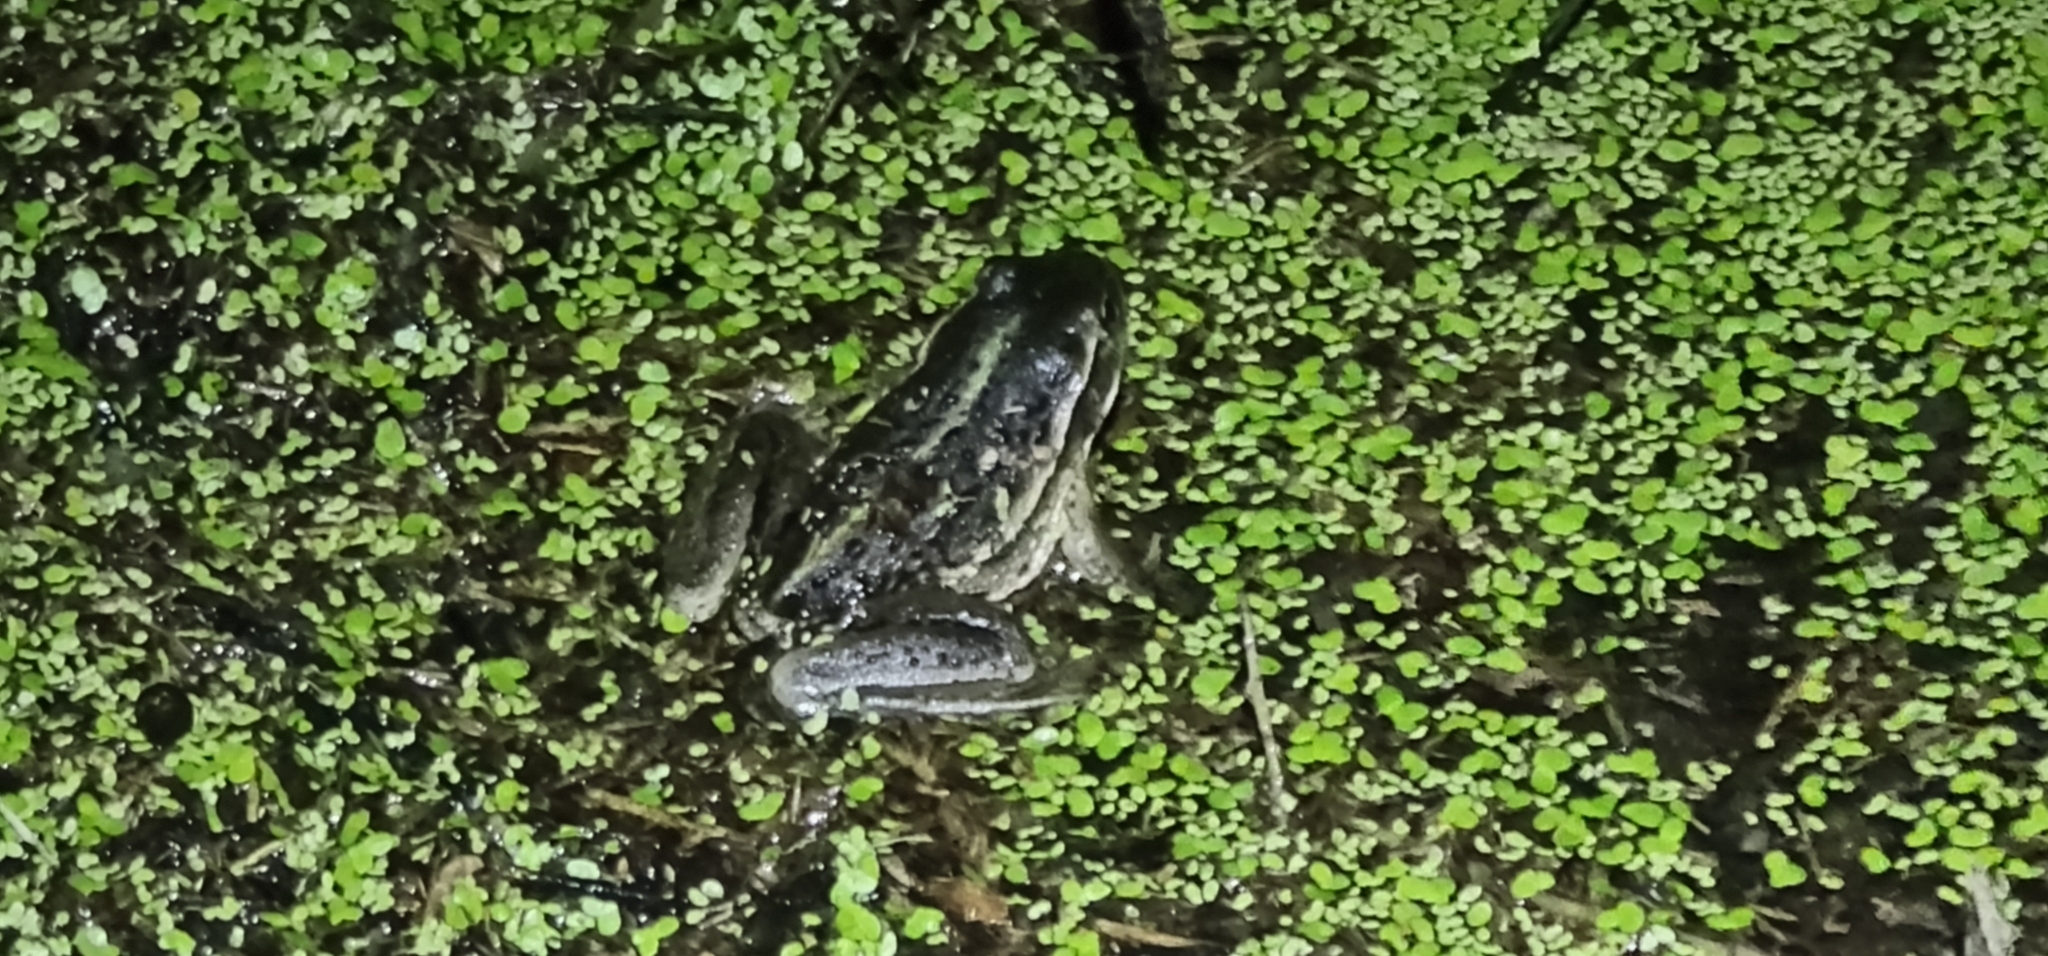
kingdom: Animalia
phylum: Chordata
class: Amphibia
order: Anura
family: Pelodryadidae
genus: Ranoidea
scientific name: Ranoidea raniformis
